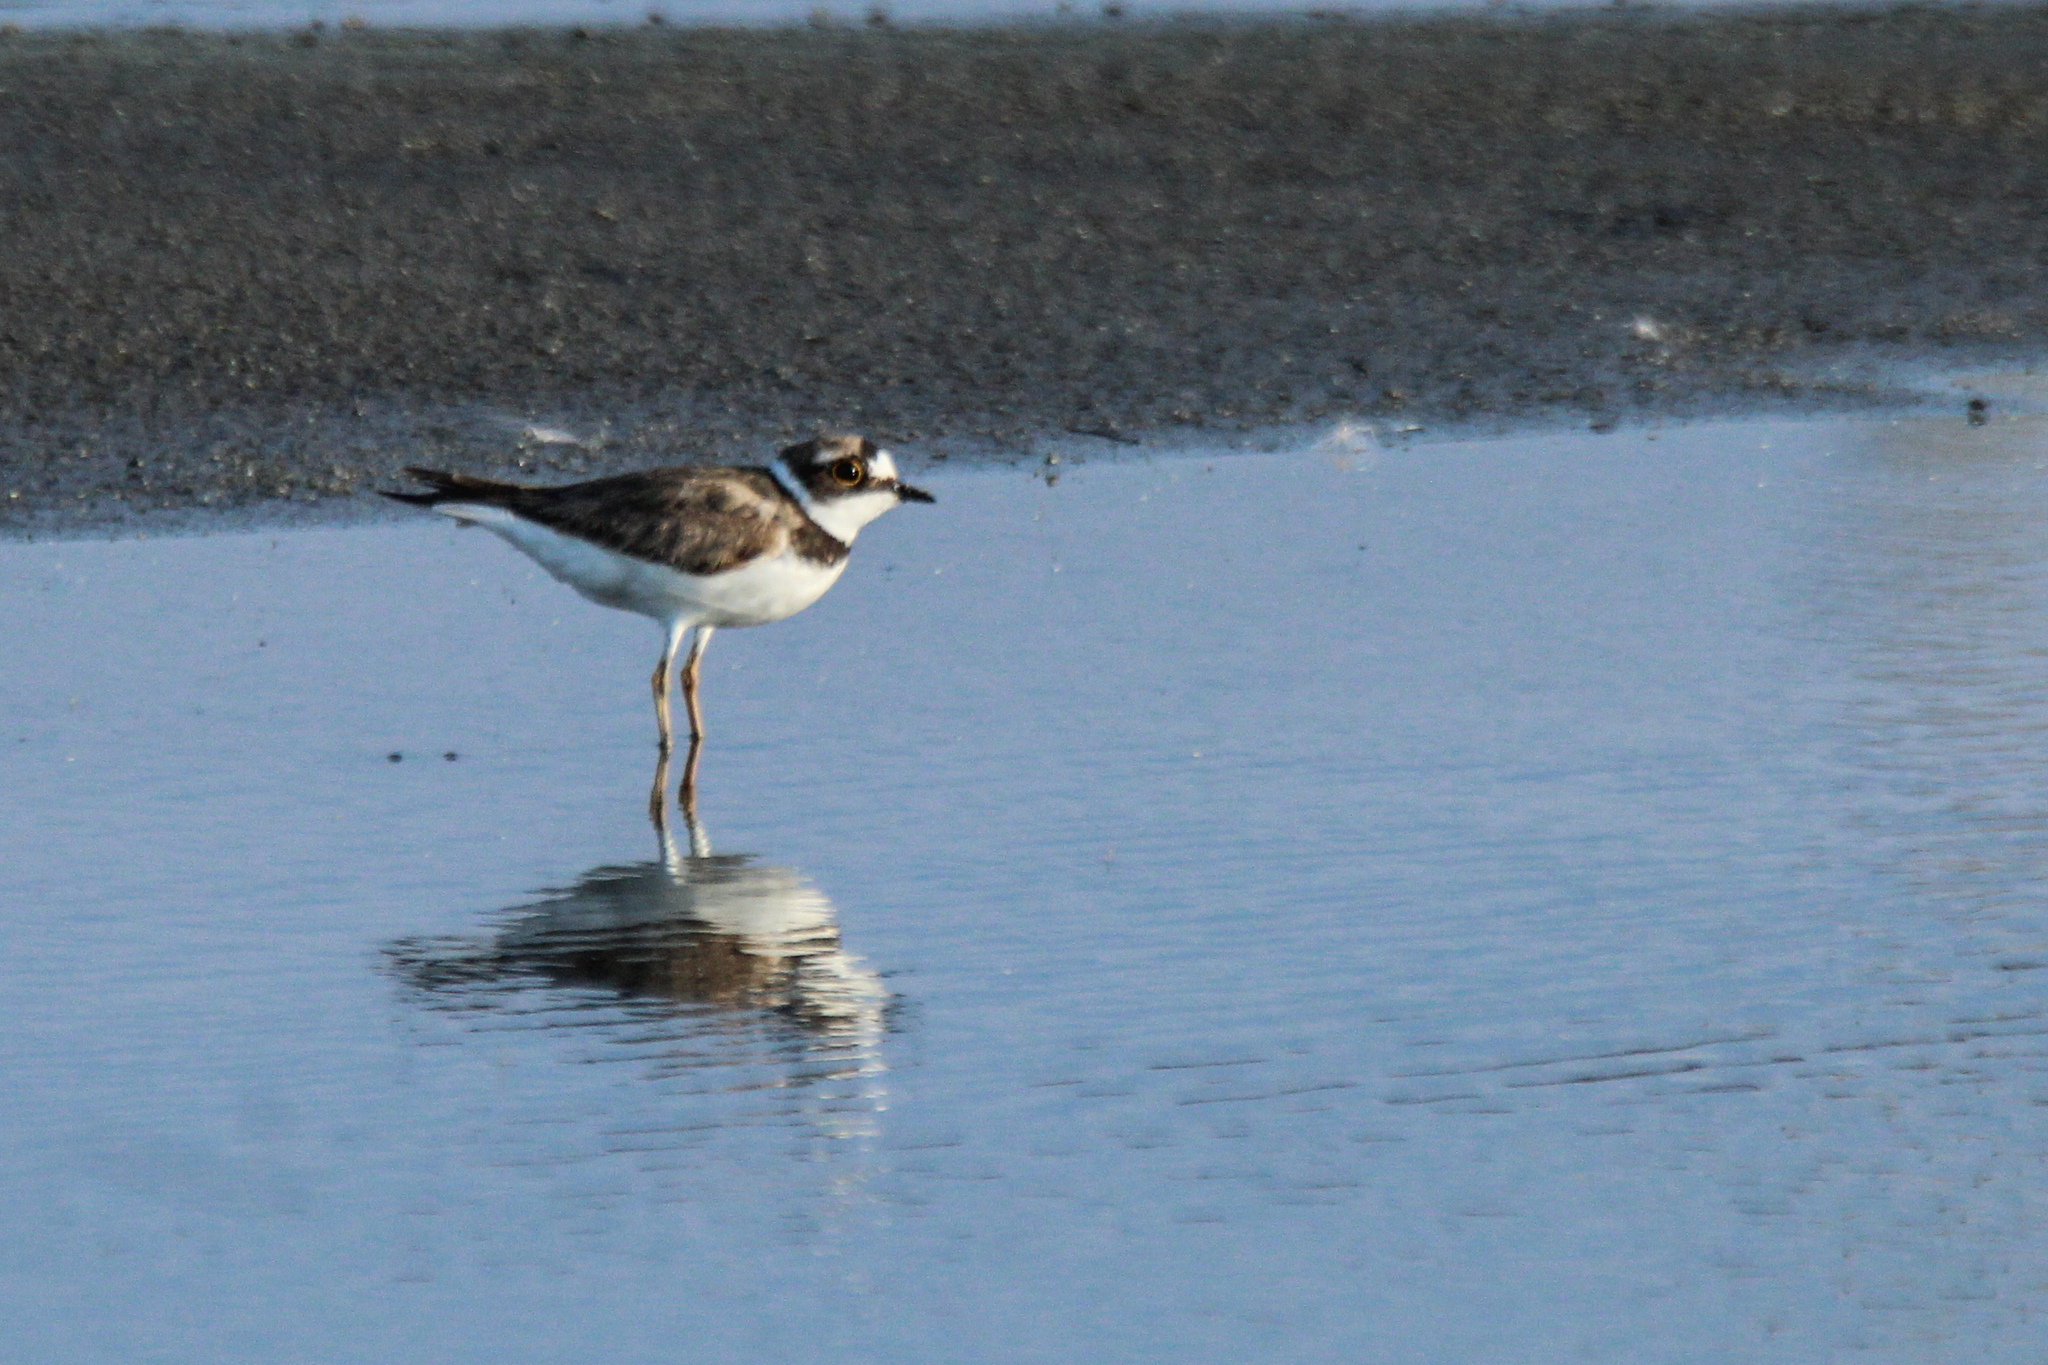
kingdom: Animalia
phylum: Chordata
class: Aves
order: Charadriiformes
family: Charadriidae
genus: Charadrius
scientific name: Charadrius dubius
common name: Little ringed plover
